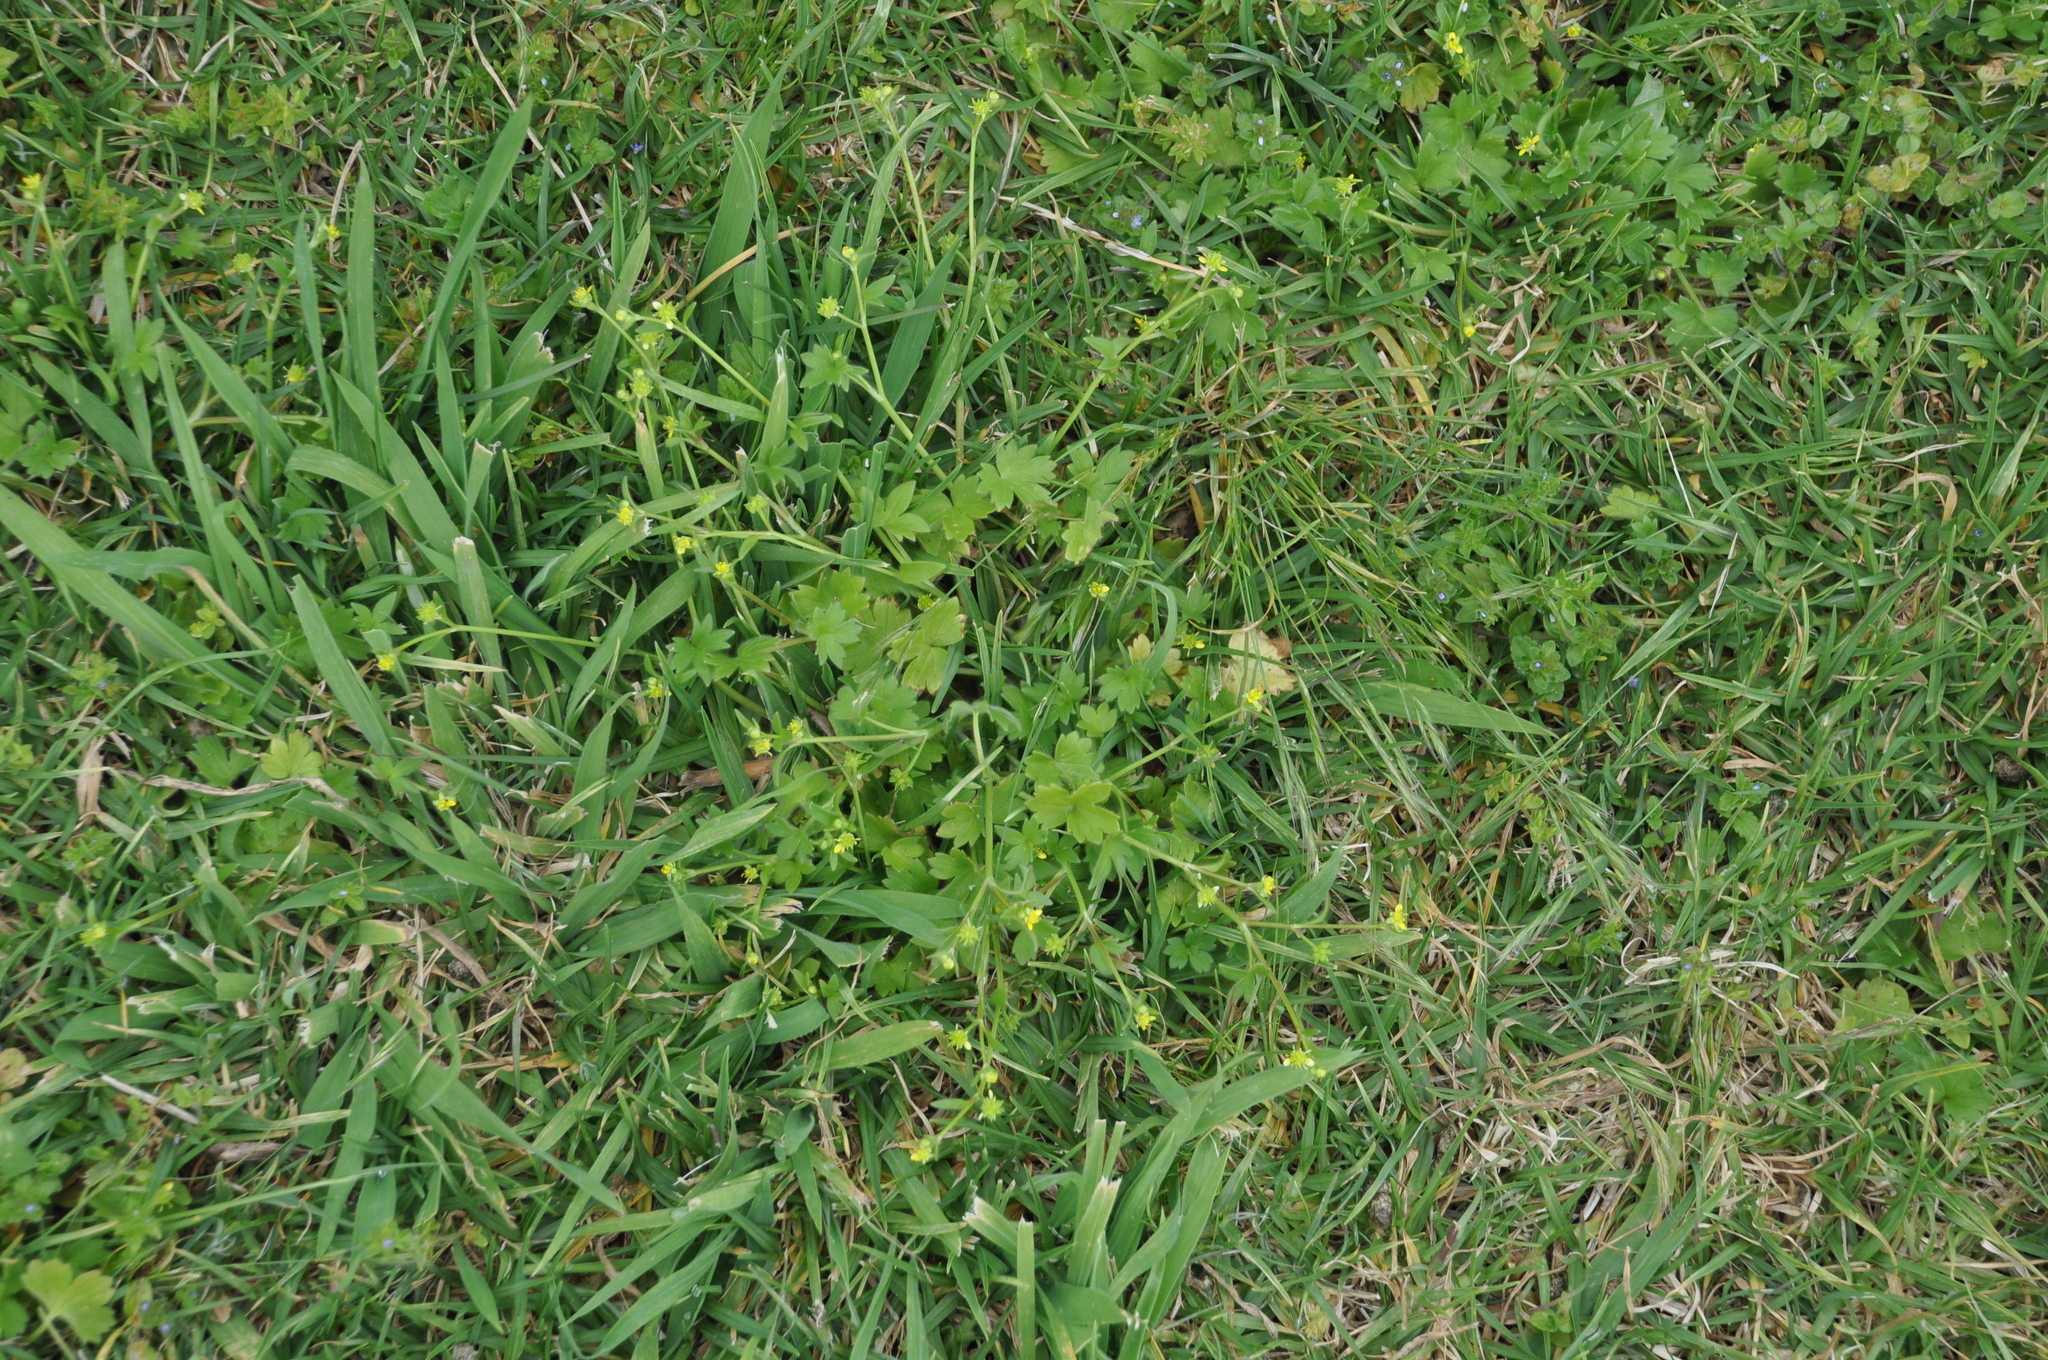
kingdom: Plantae
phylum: Tracheophyta
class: Magnoliopsida
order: Ranunculales
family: Ranunculaceae
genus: Ranunculus
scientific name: Ranunculus parviflorus
